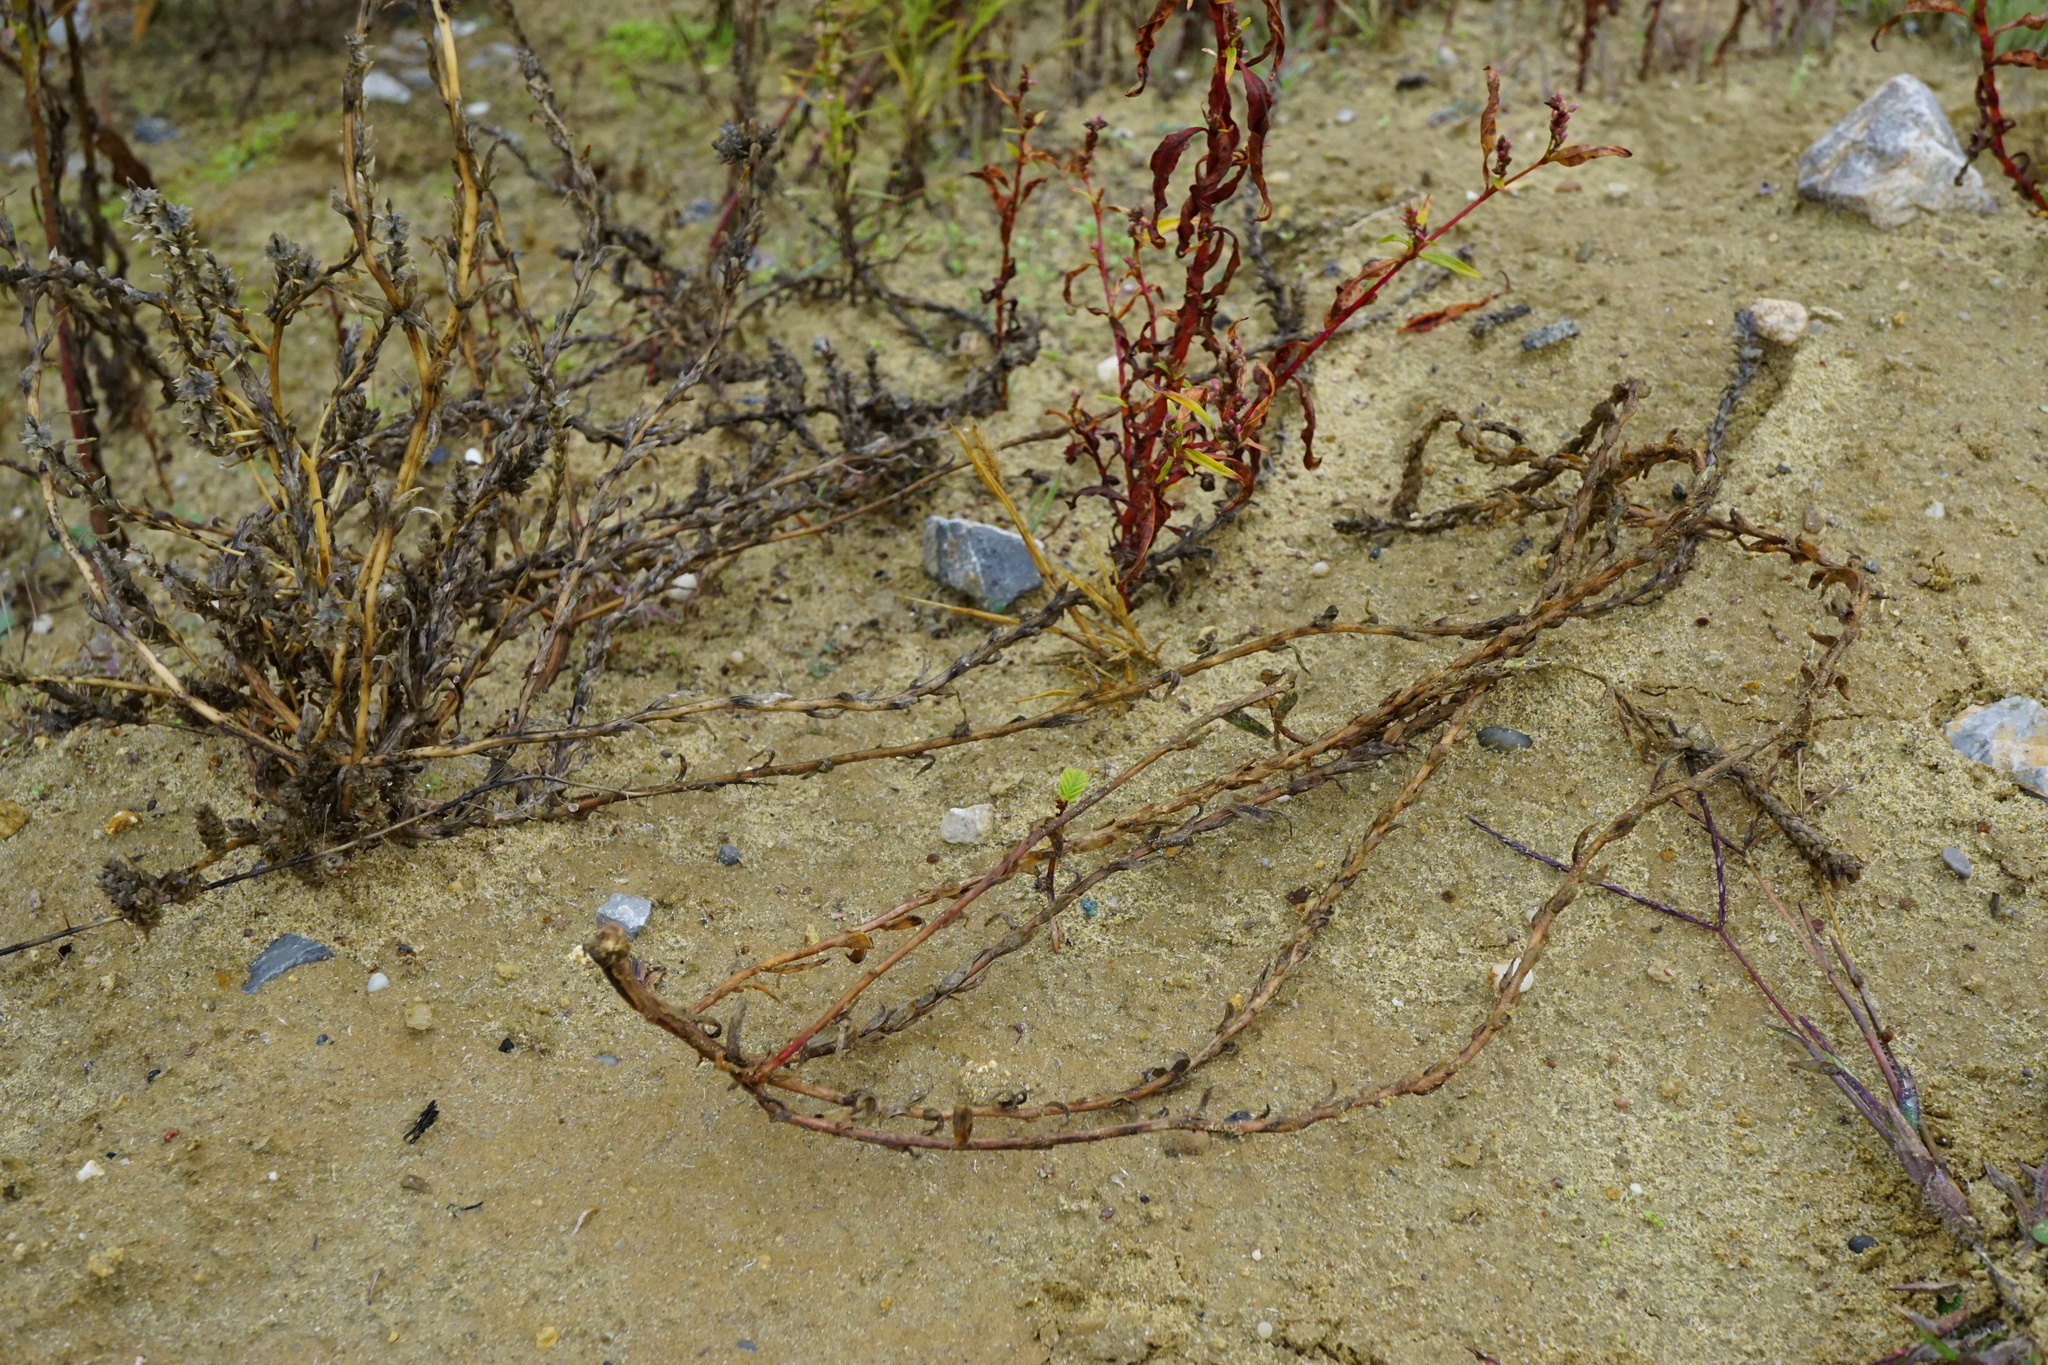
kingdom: Plantae
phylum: Tracheophyta
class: Magnoliopsida
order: Caryophyllales
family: Amaranthaceae
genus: Corispermum
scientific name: Corispermum pallasii
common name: Siberian bugseed
